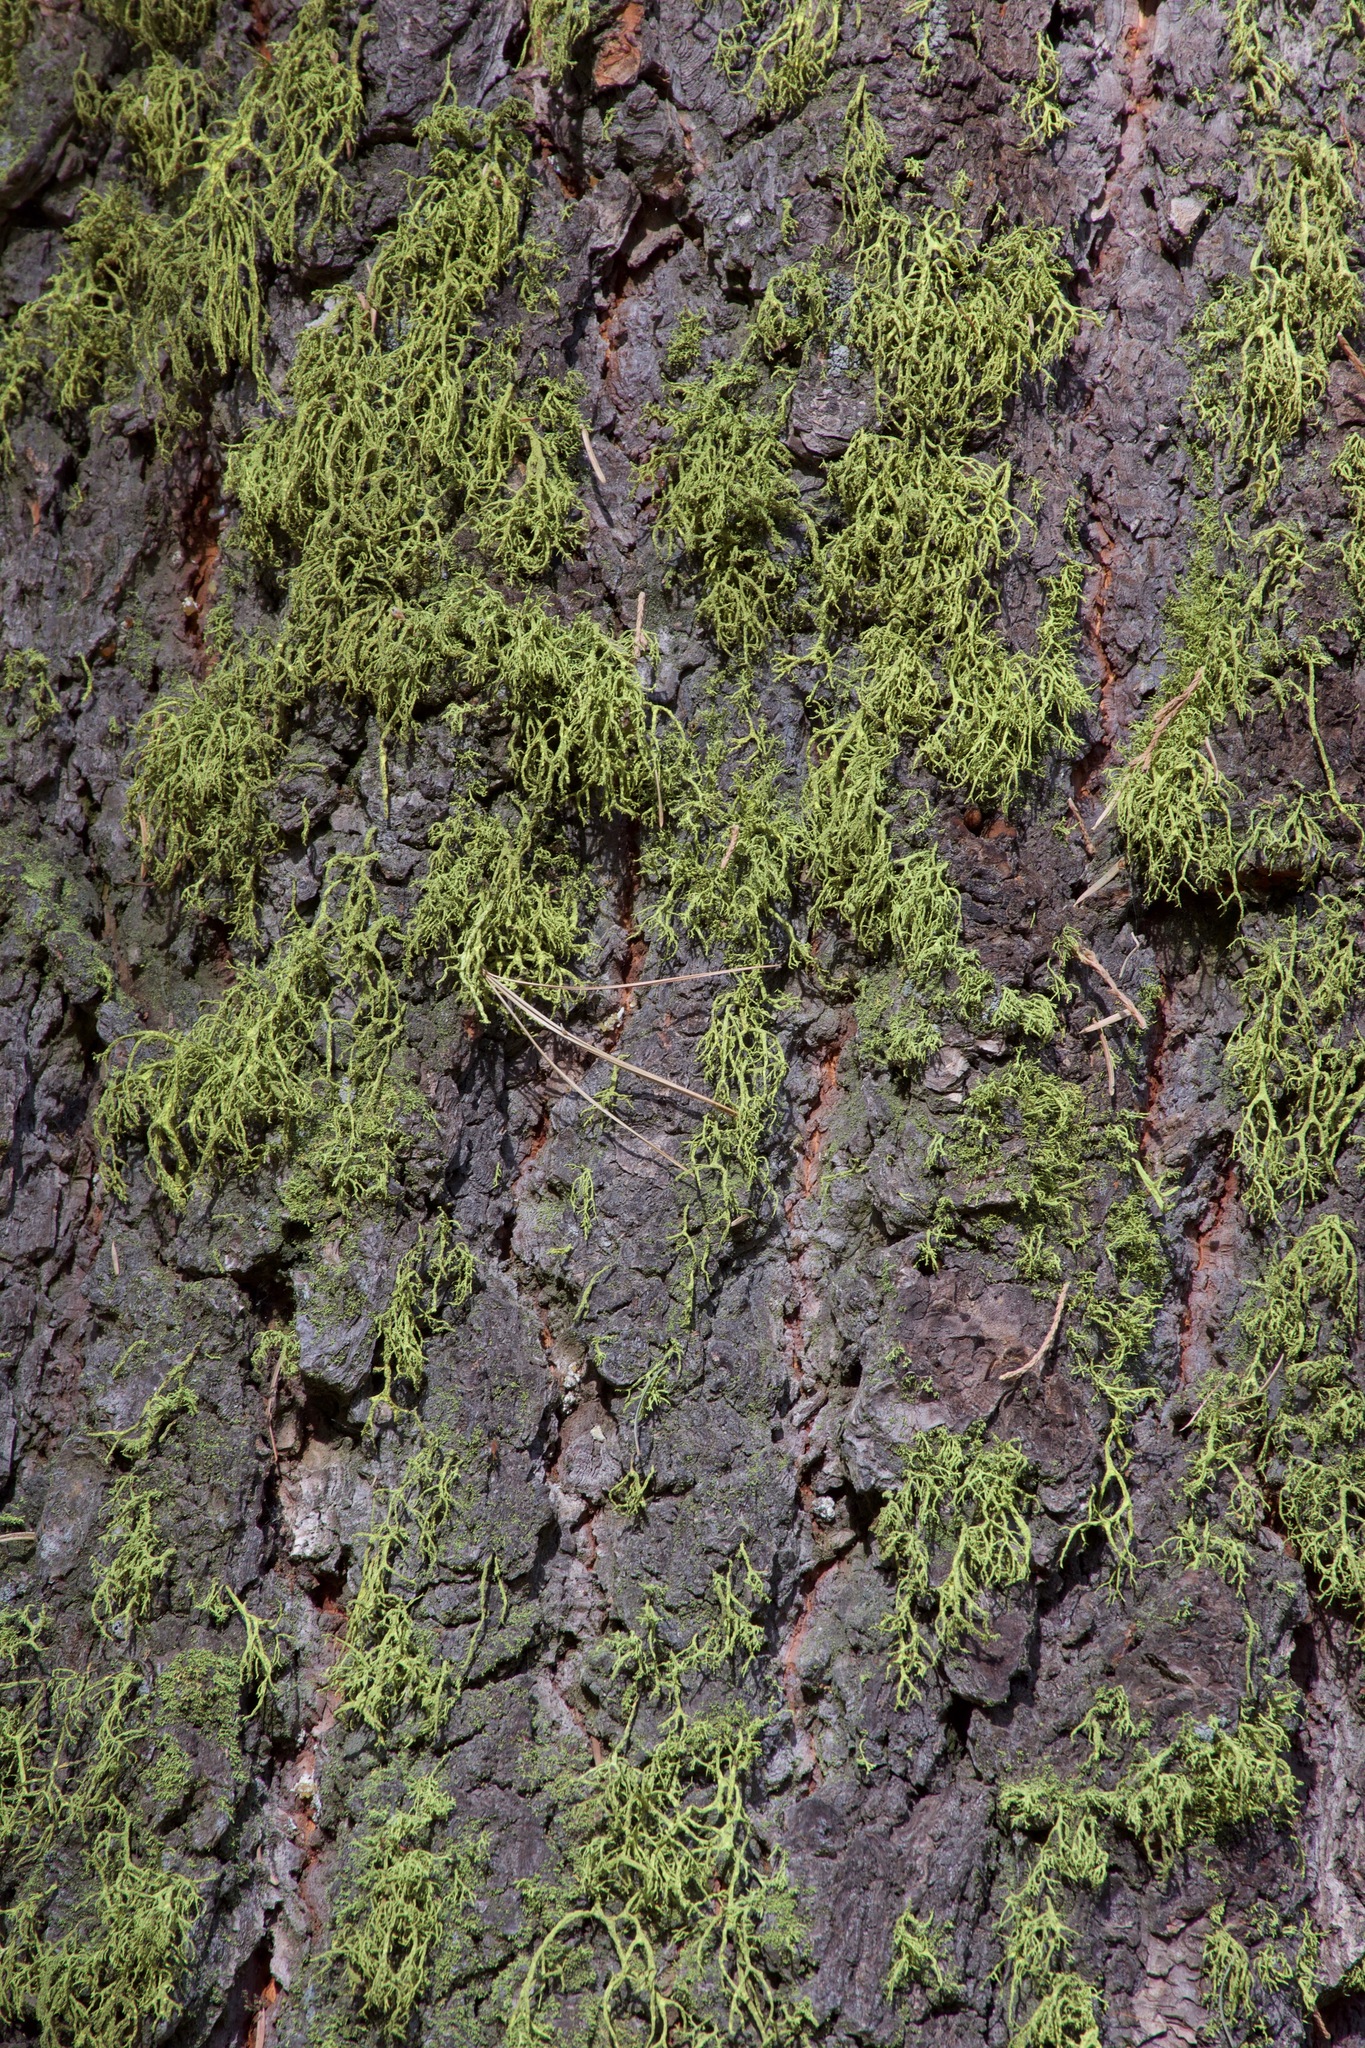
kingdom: Fungi
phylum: Ascomycota
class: Lecanoromycetes
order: Lecanorales
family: Parmeliaceae
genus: Letharia
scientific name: Letharia vulpina
